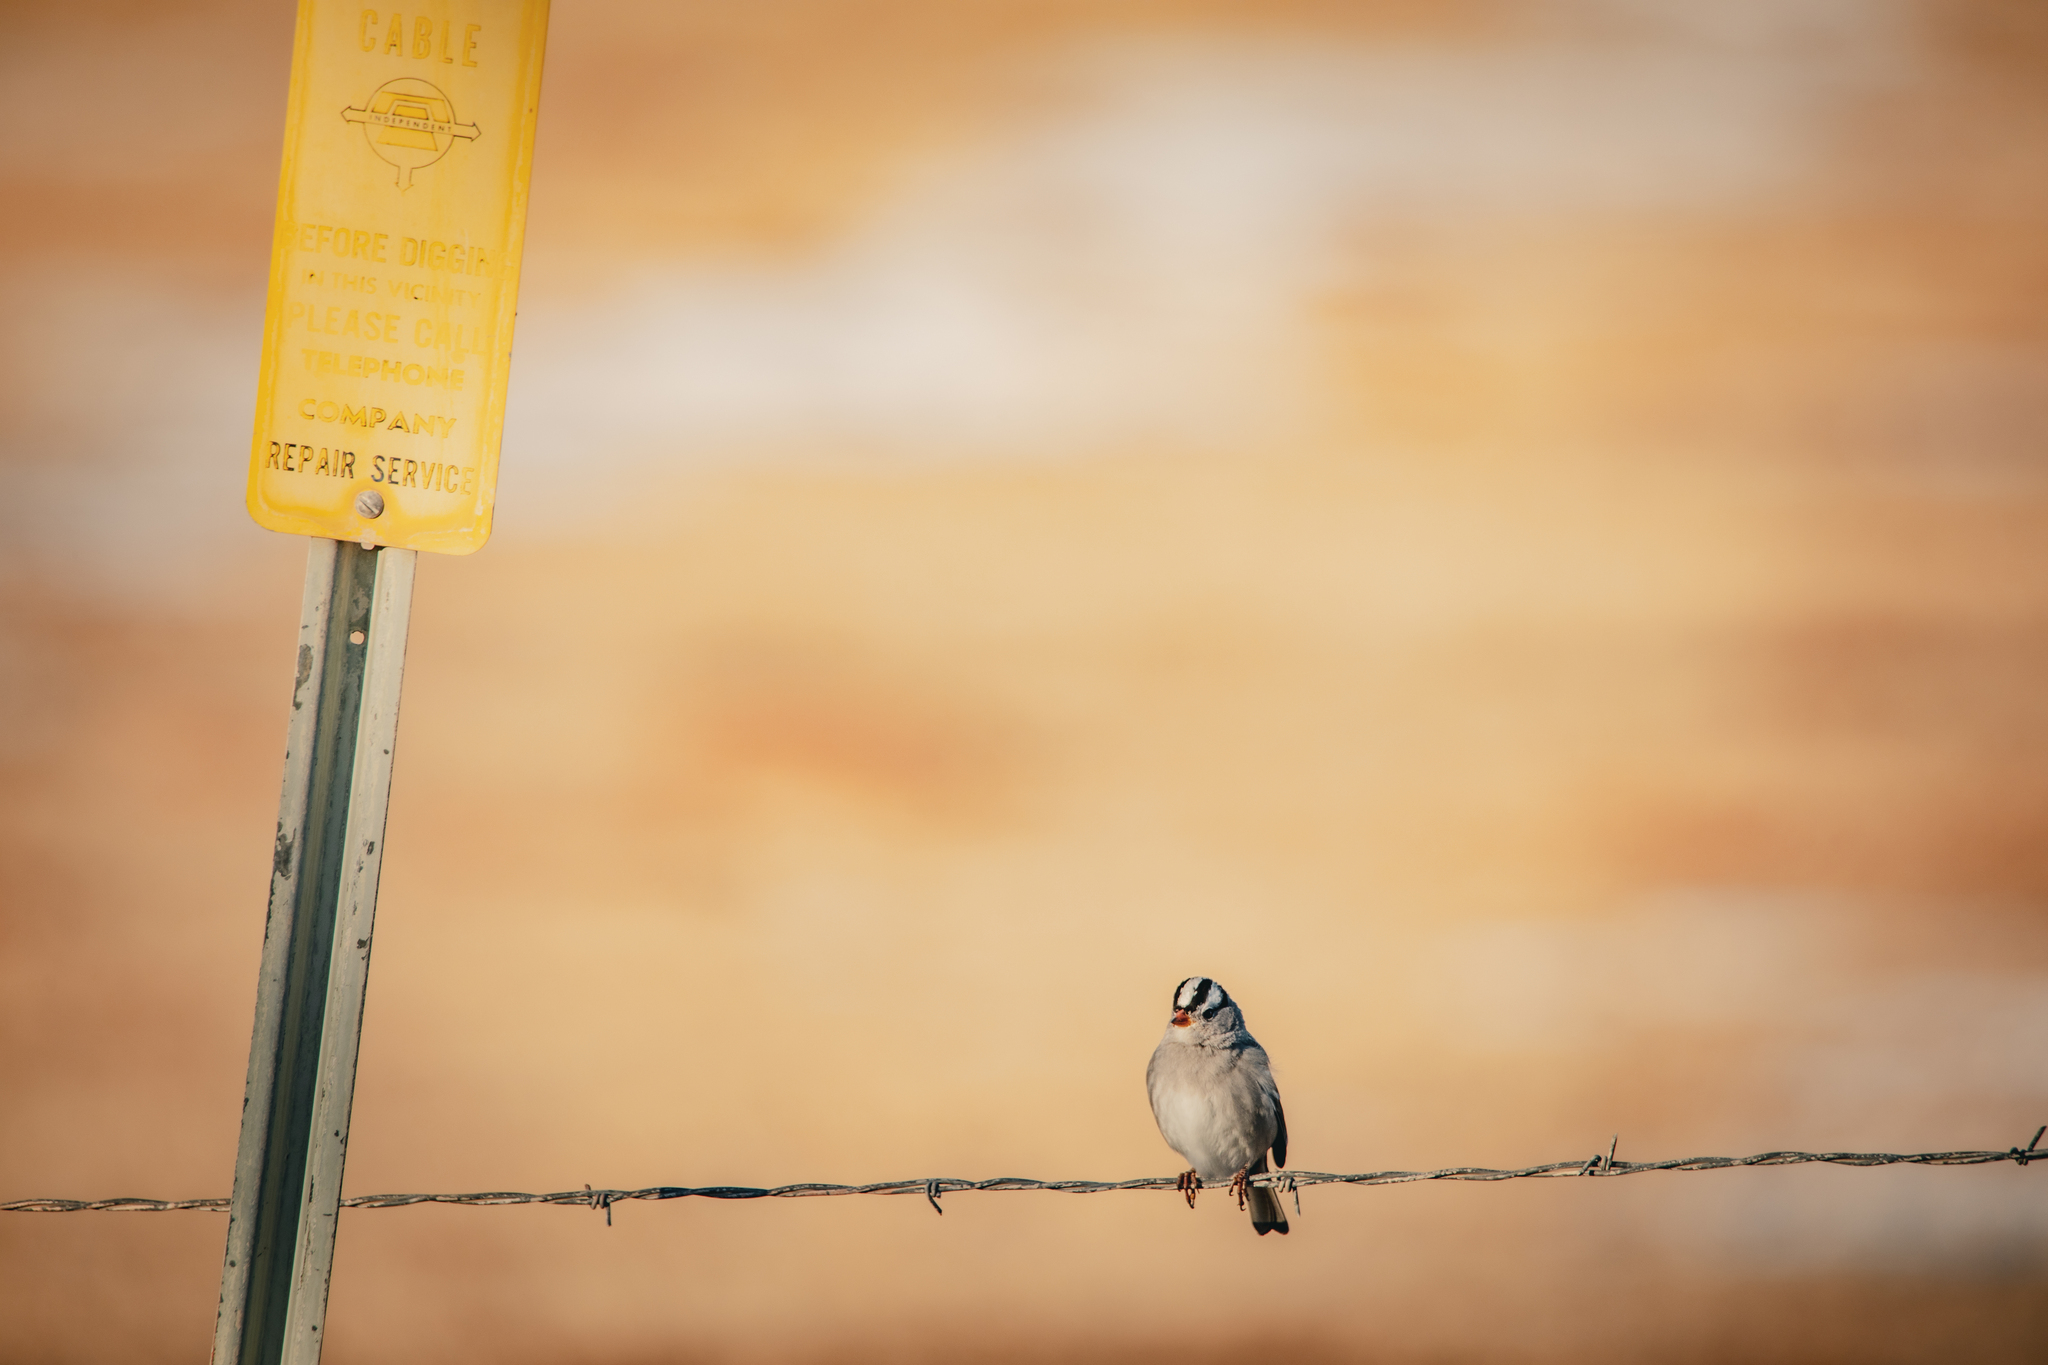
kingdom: Animalia
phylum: Chordata
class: Aves
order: Passeriformes
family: Passerellidae
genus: Zonotrichia
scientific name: Zonotrichia leucophrys
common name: White-crowned sparrow
